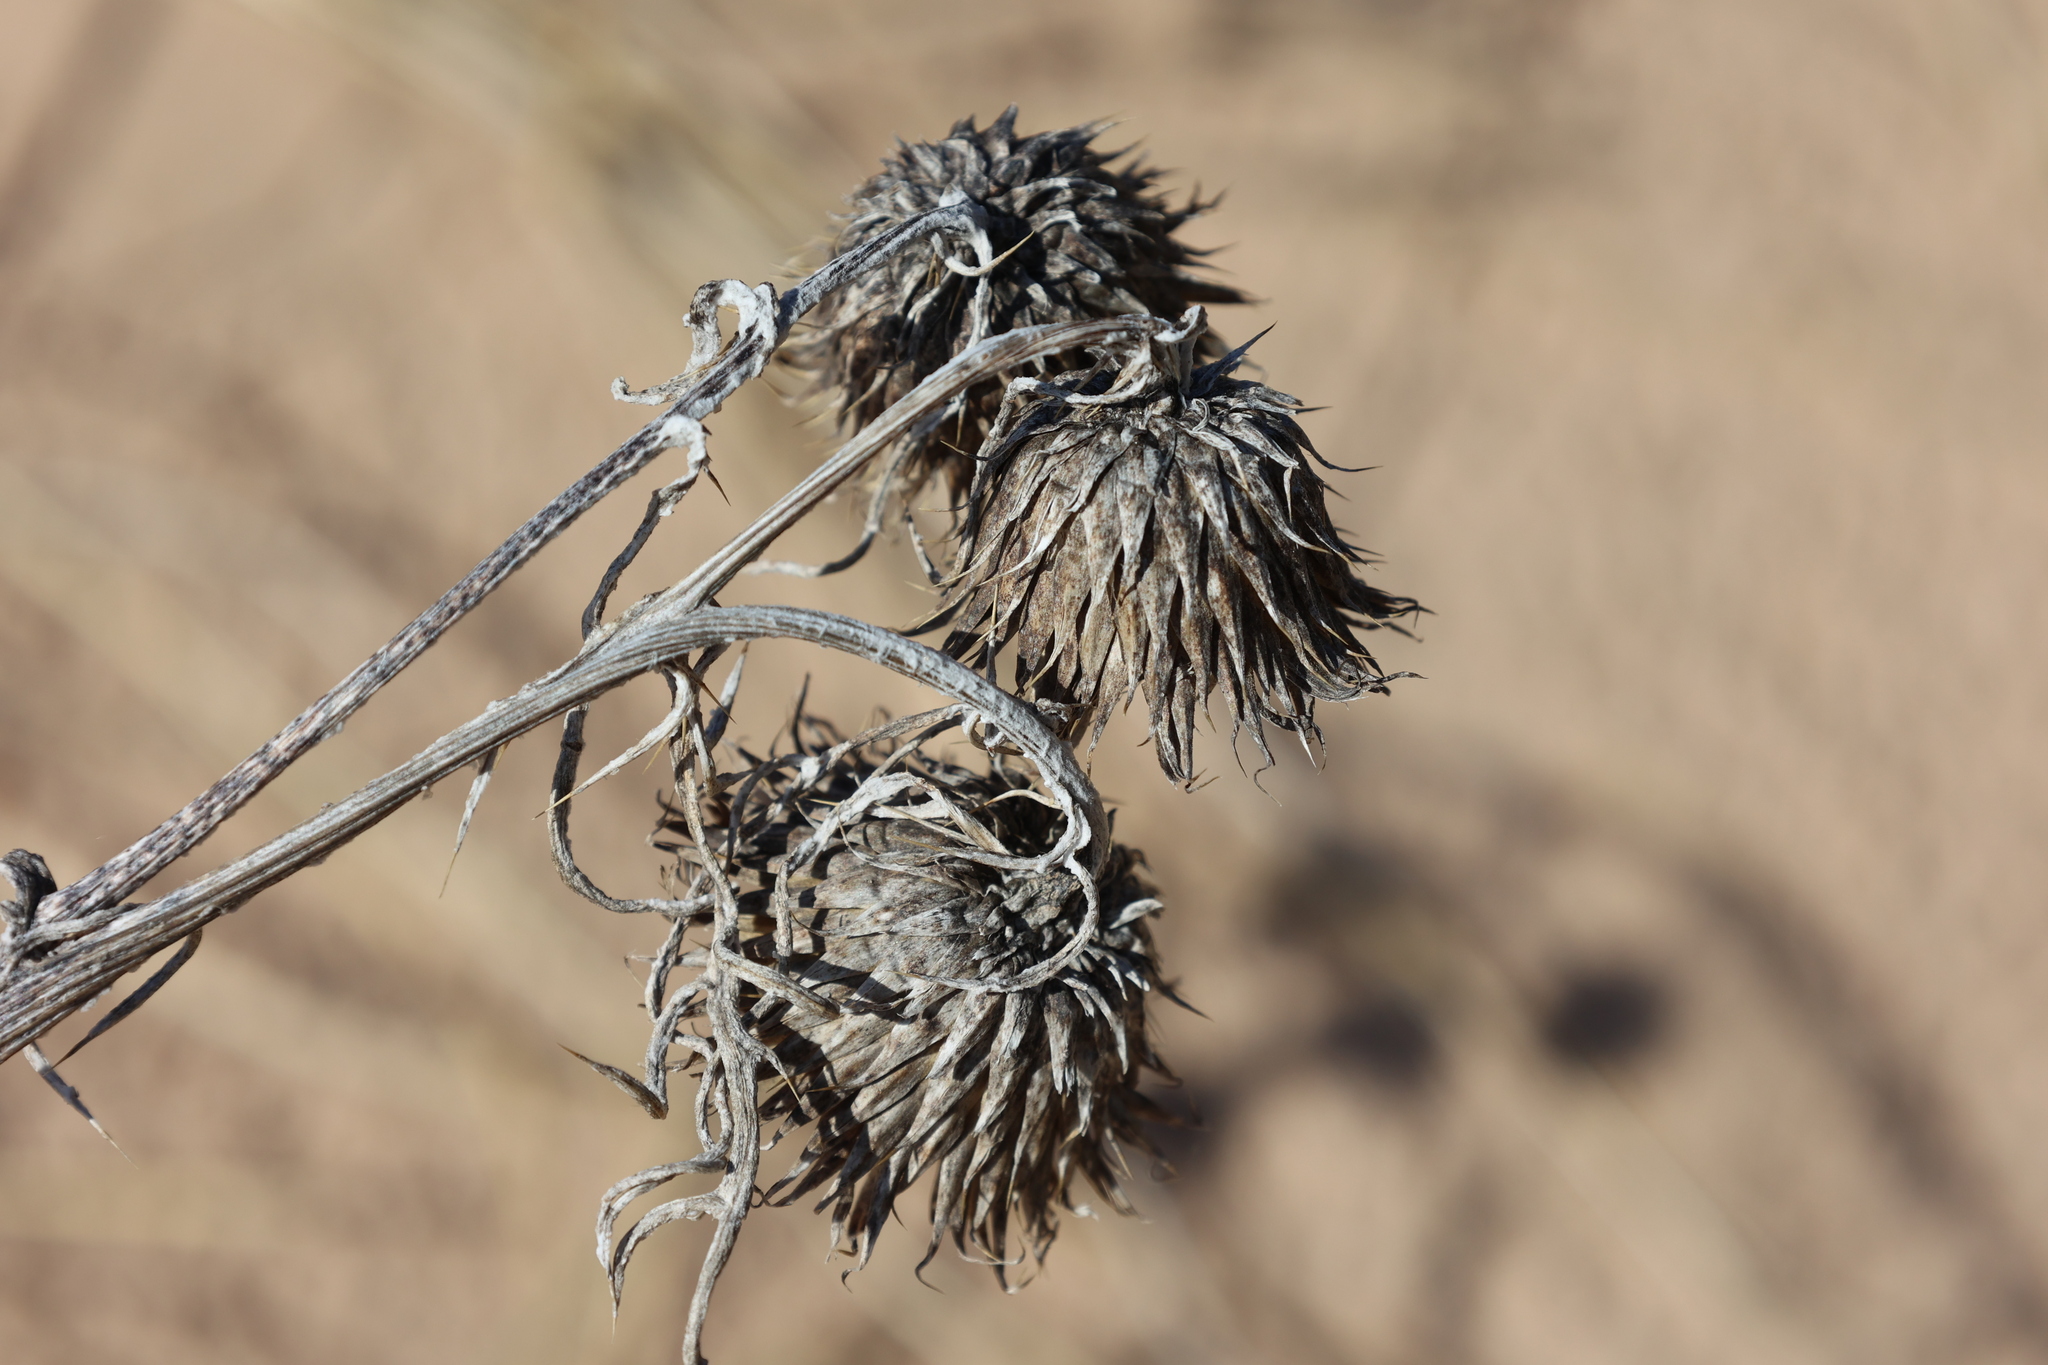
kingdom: Plantae
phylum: Tracheophyta
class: Magnoliopsida
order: Asterales
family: Asteraceae
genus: Cirsium
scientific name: Cirsium pitcheri
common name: Dune thistle
